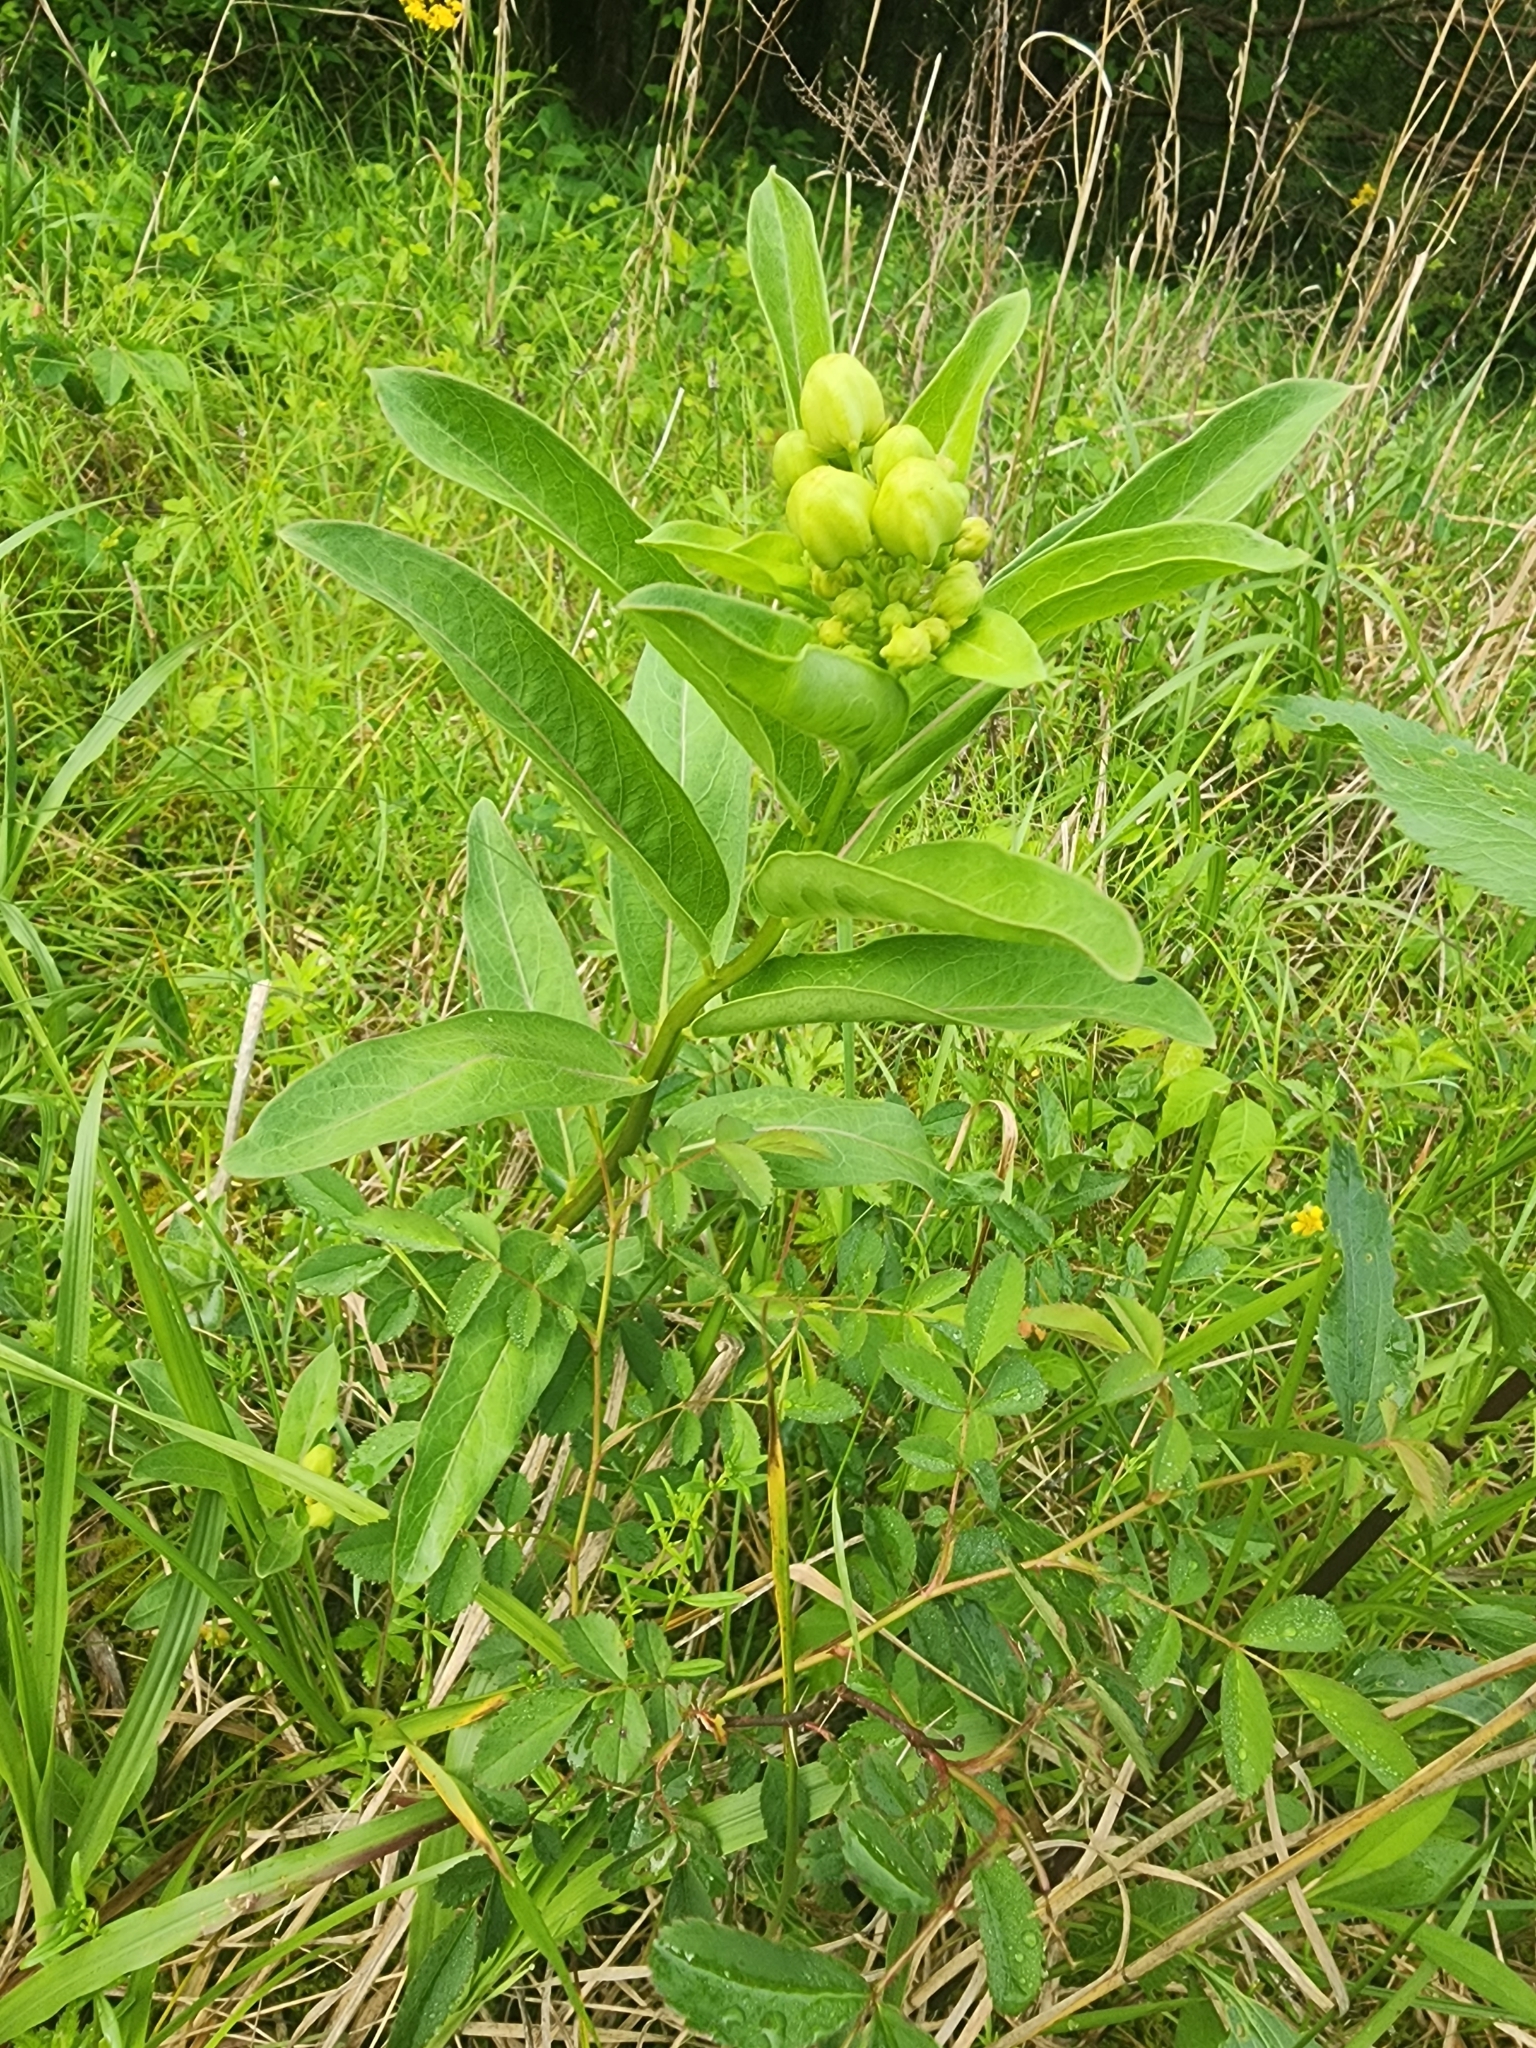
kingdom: Plantae
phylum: Tracheophyta
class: Magnoliopsida
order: Gentianales
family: Apocynaceae
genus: Asclepias
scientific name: Asclepias viridis
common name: Antelope-horns
